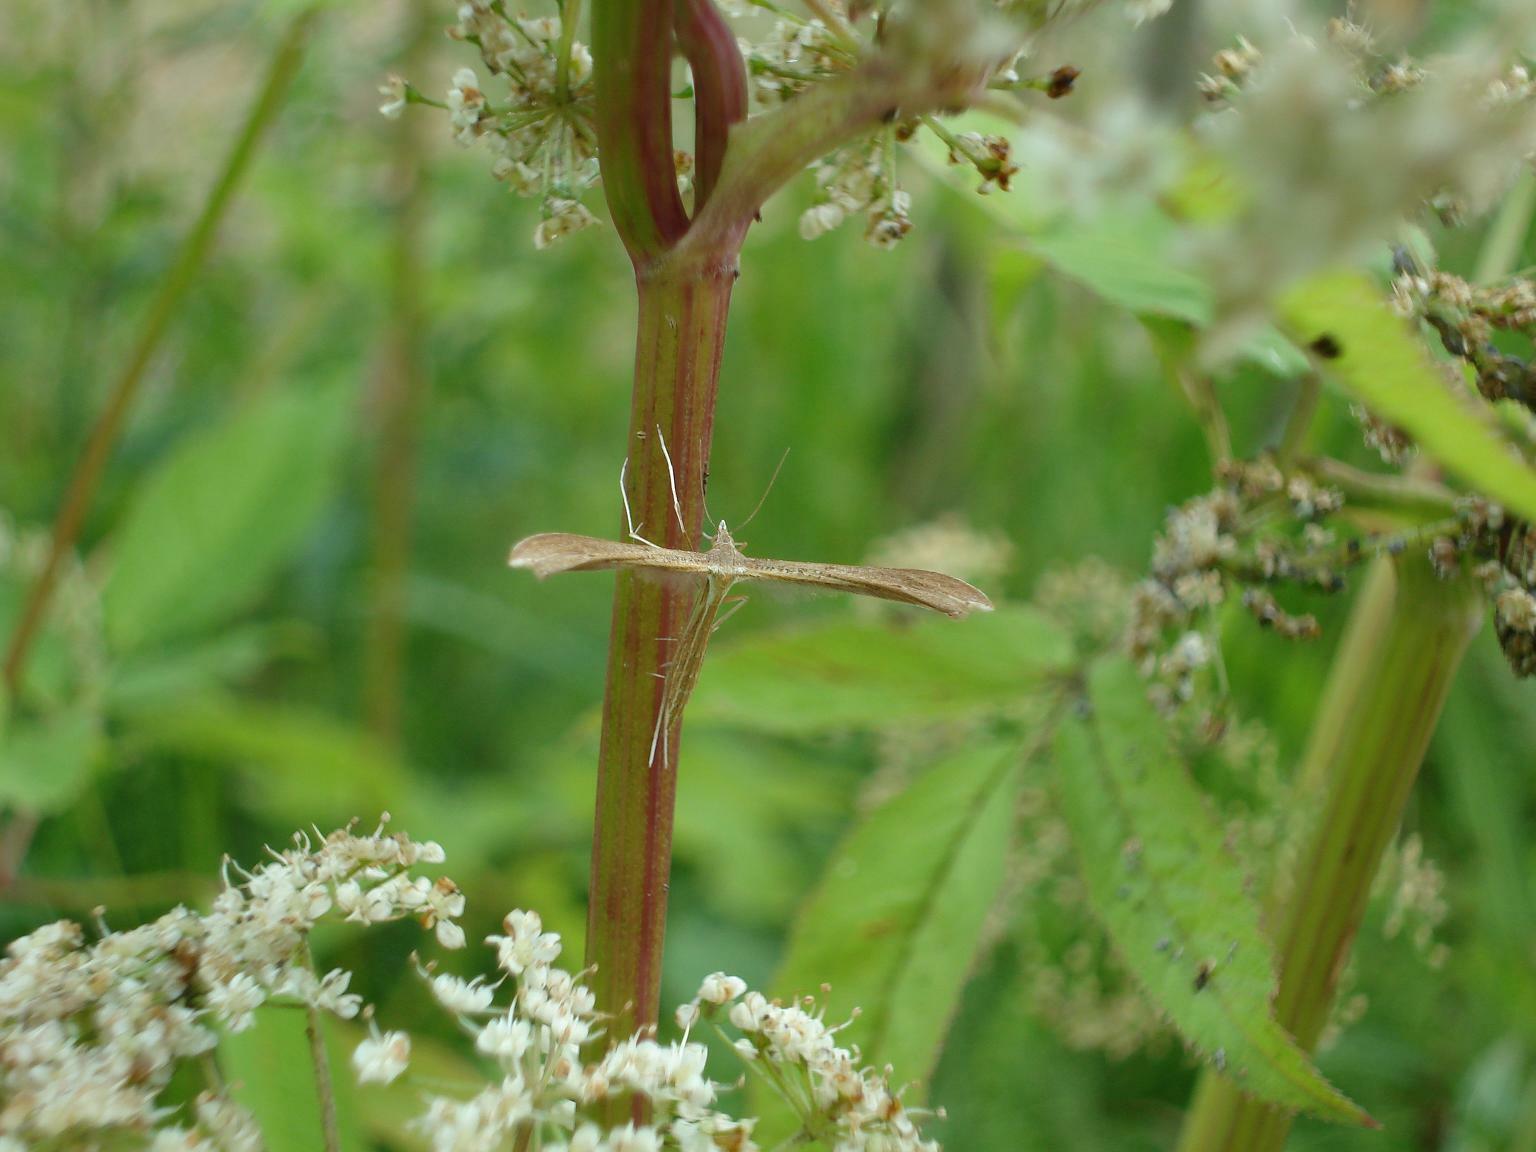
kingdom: Animalia
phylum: Arthropoda
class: Insecta
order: Lepidoptera
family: Pterophoridae
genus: Stenoptilia
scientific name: Stenoptilia pterodactyla
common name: Brown plume
